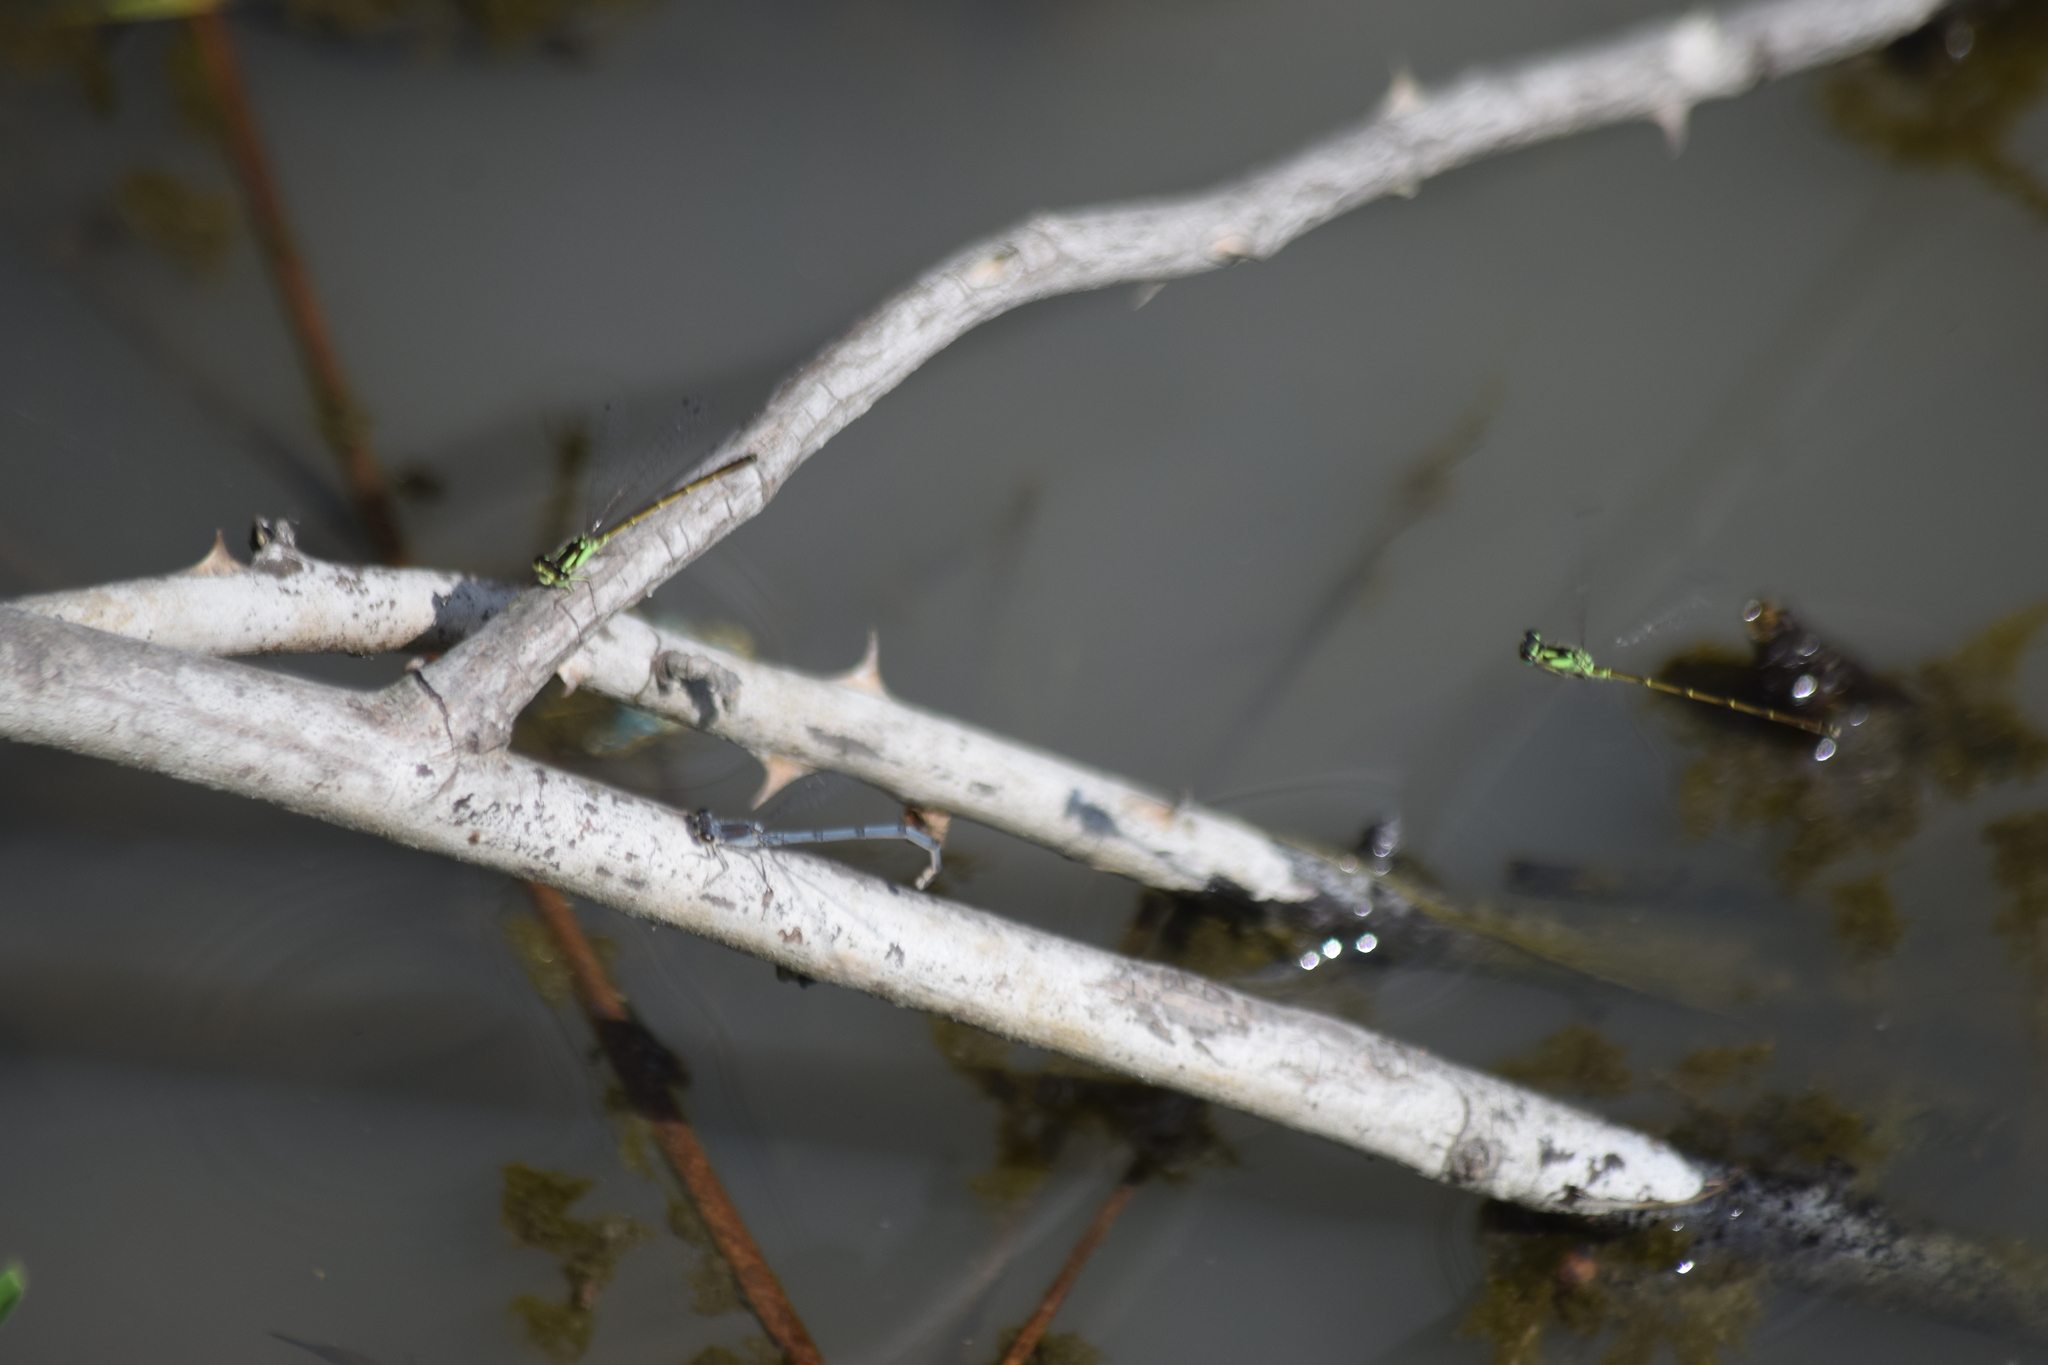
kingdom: Animalia
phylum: Arthropoda
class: Insecta
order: Odonata
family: Coenagrionidae
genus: Ischnura
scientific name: Ischnura posita
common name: Fragile forktail
